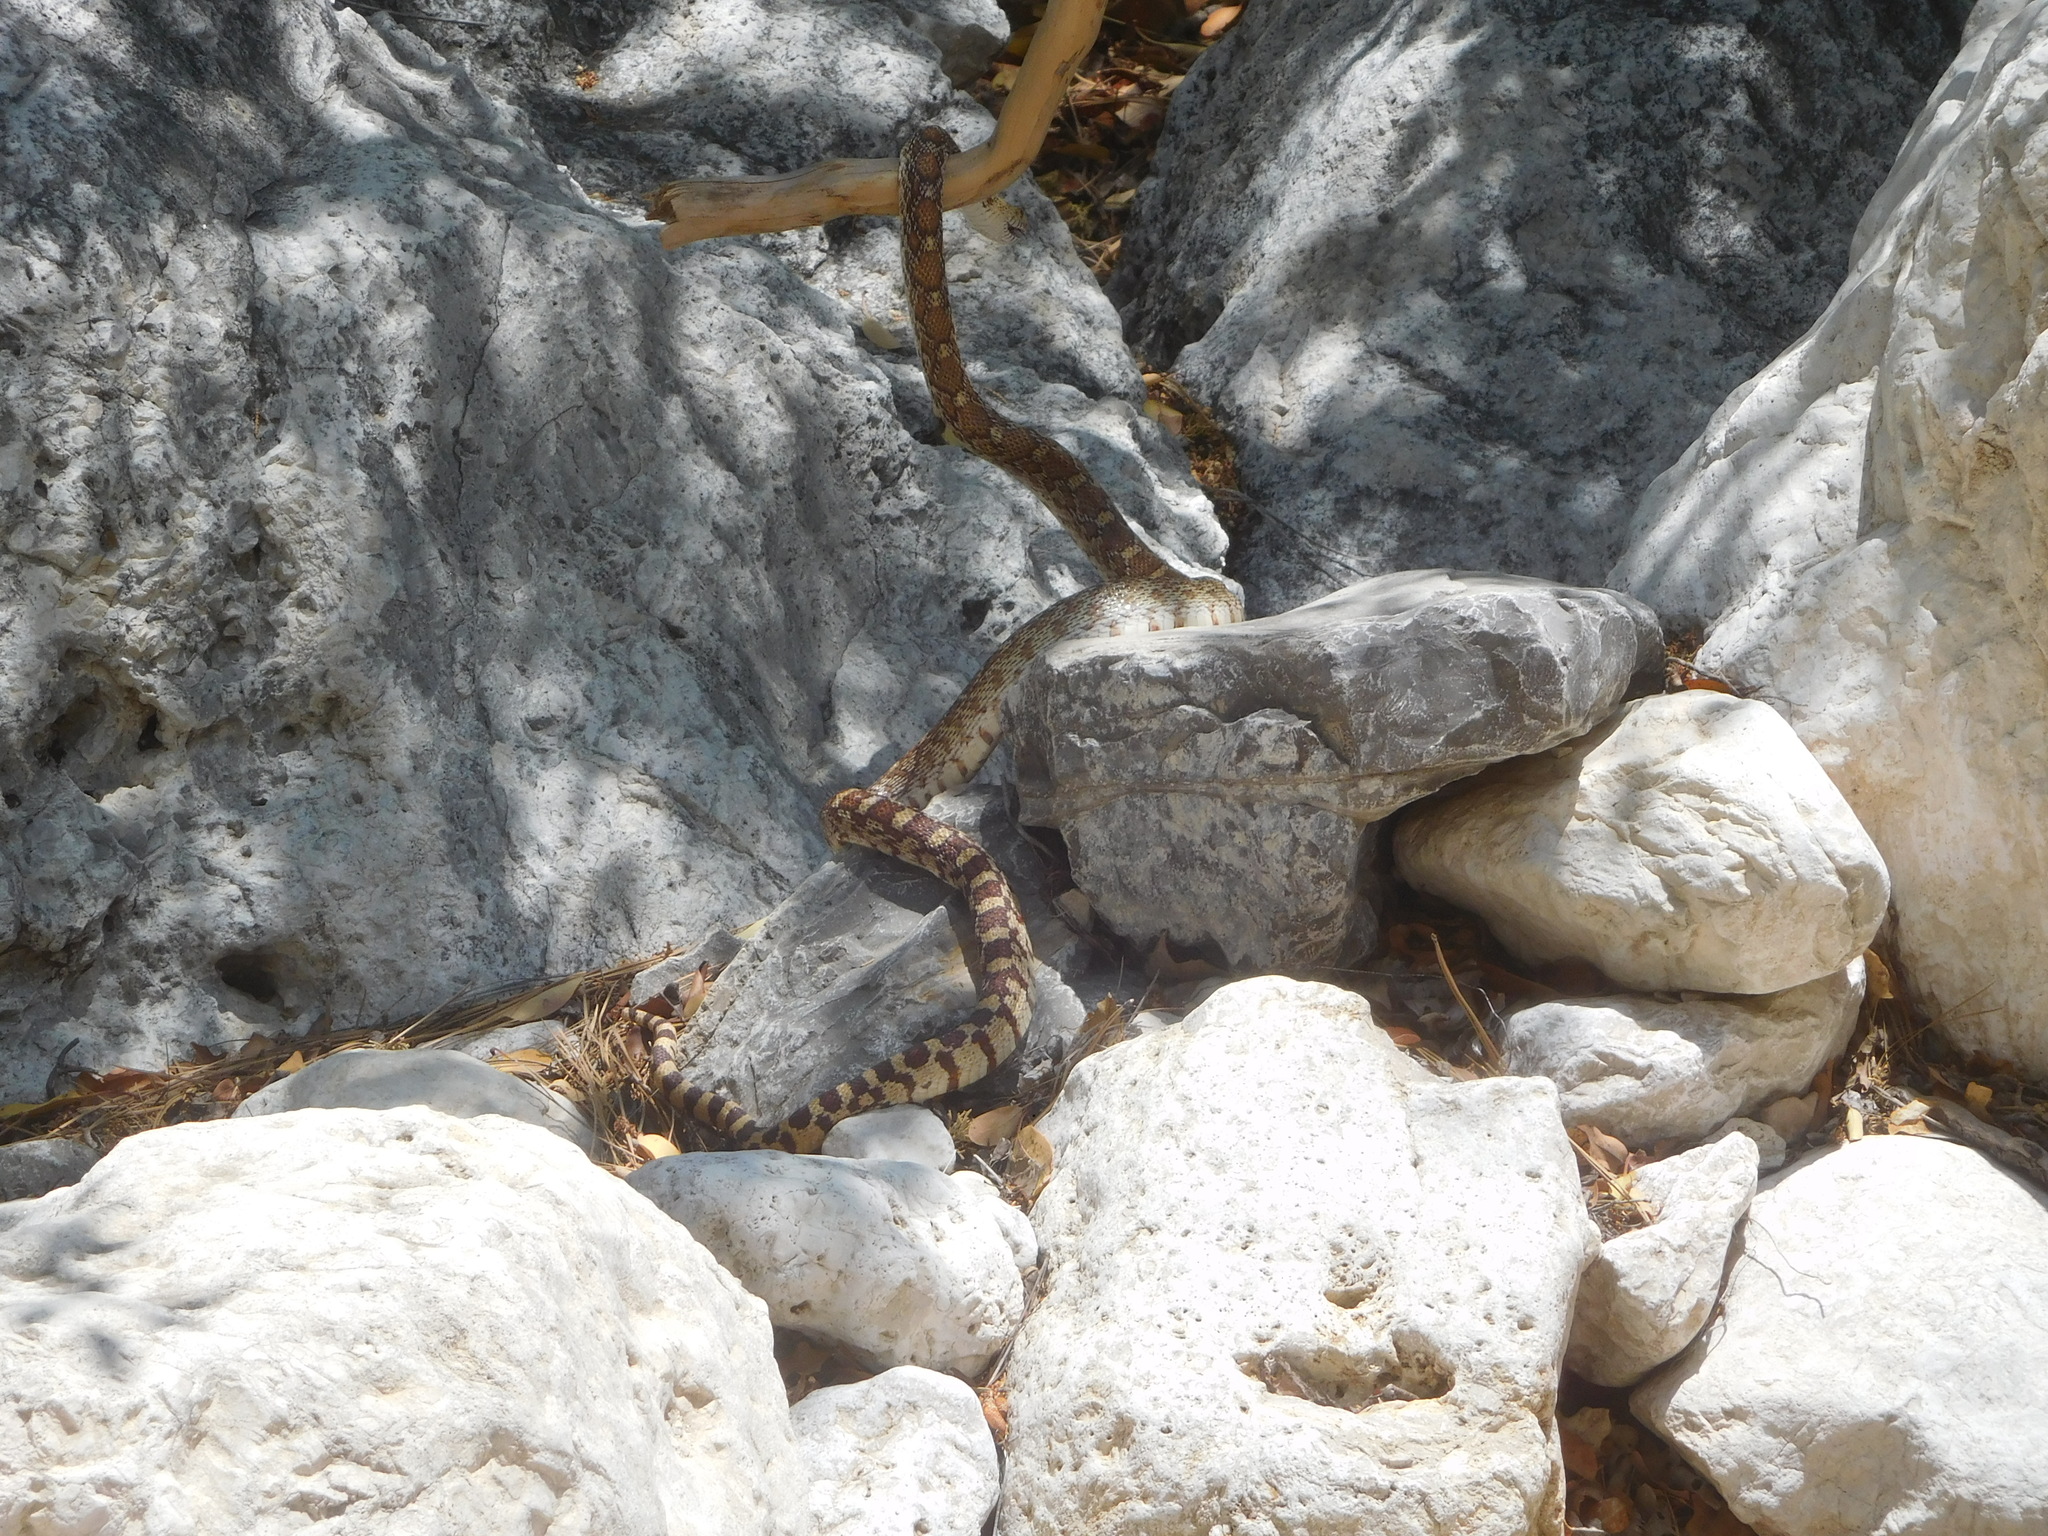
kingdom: Animalia
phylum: Chordata
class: Squamata
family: Colubridae
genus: Pituophis
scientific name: Pituophis catenifer
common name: Gopher snake
